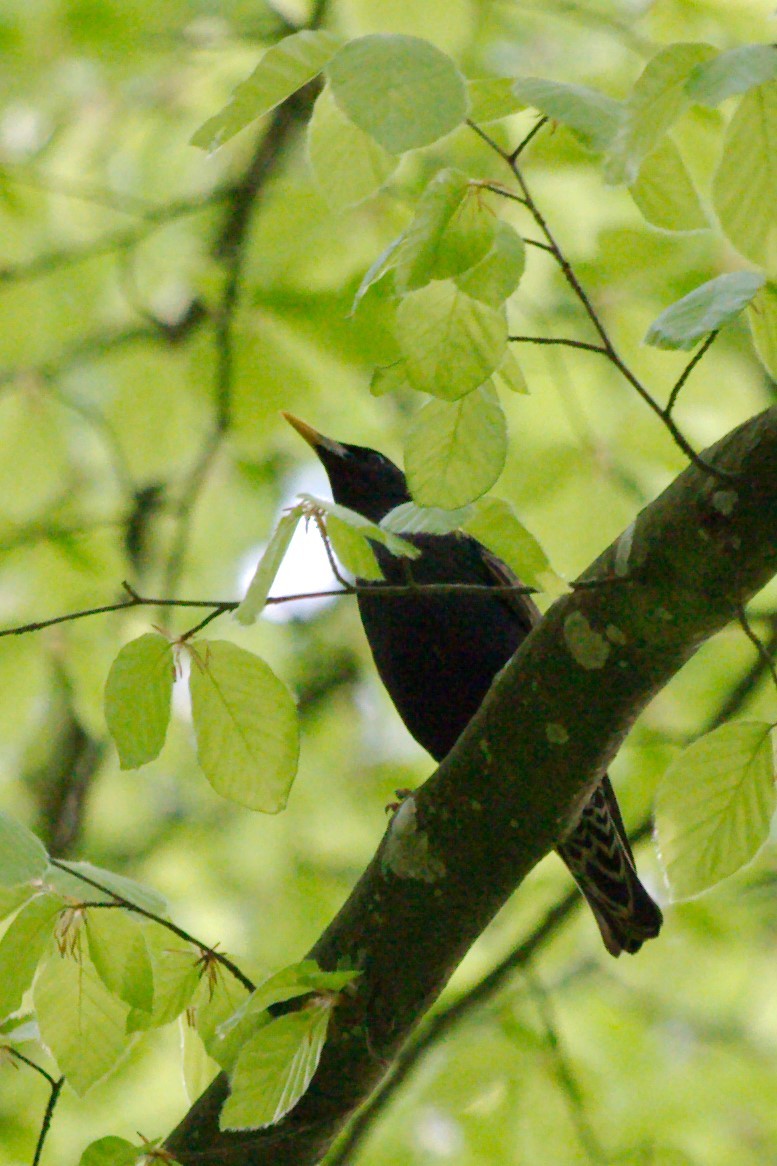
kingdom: Animalia
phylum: Chordata
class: Aves
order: Passeriformes
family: Sturnidae
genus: Sturnus
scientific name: Sturnus vulgaris
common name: Common starling
